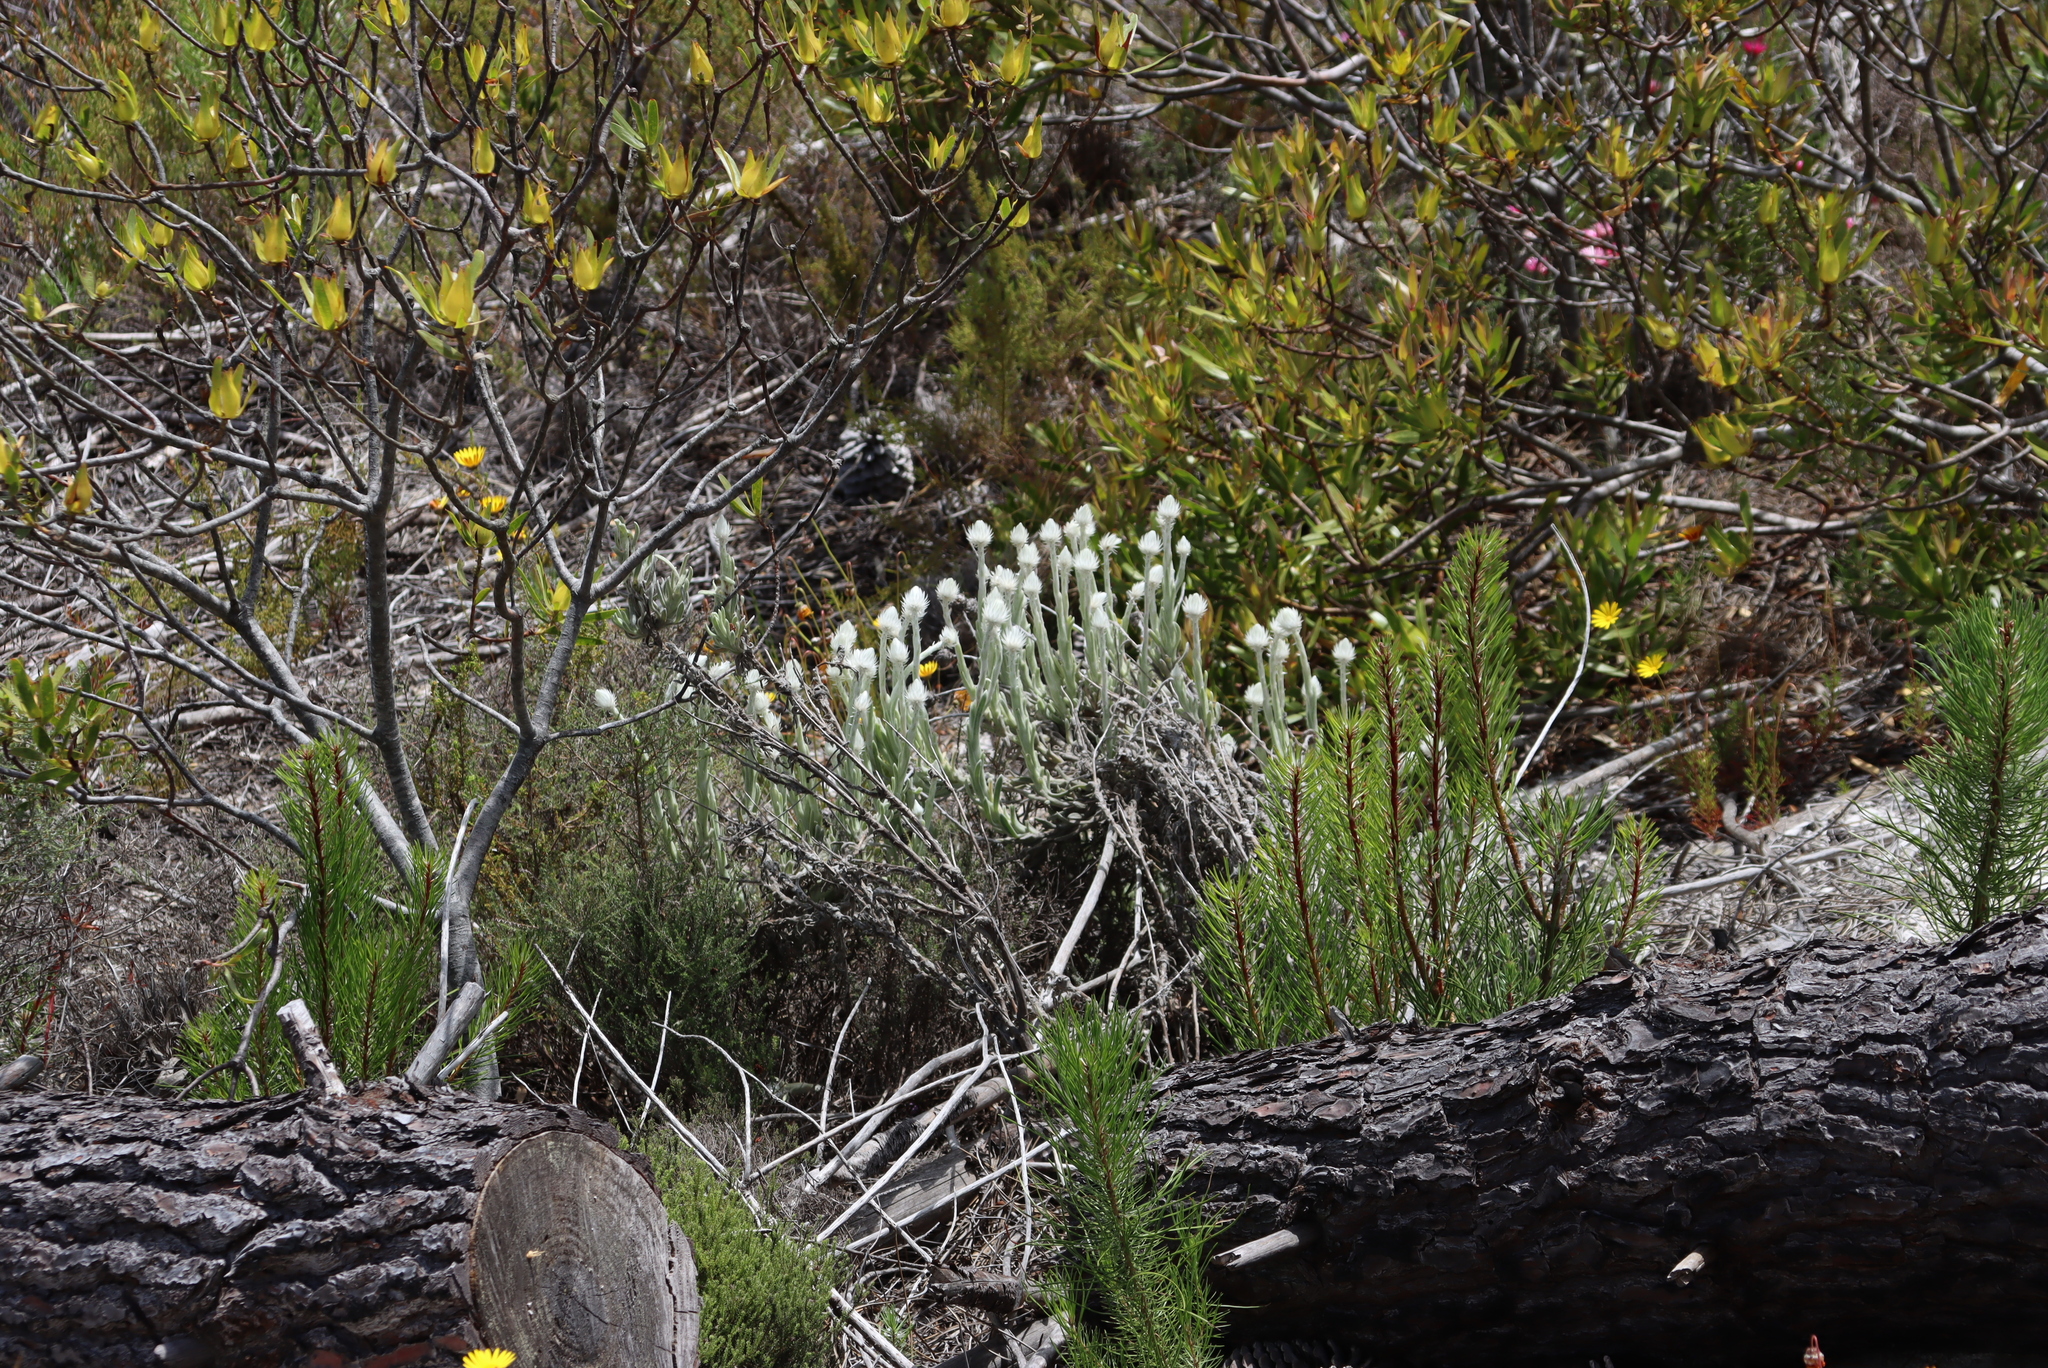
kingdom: Plantae
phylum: Tracheophyta
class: Magnoliopsida
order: Asterales
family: Asteraceae
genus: Syncarpha
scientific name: Syncarpha vestita
